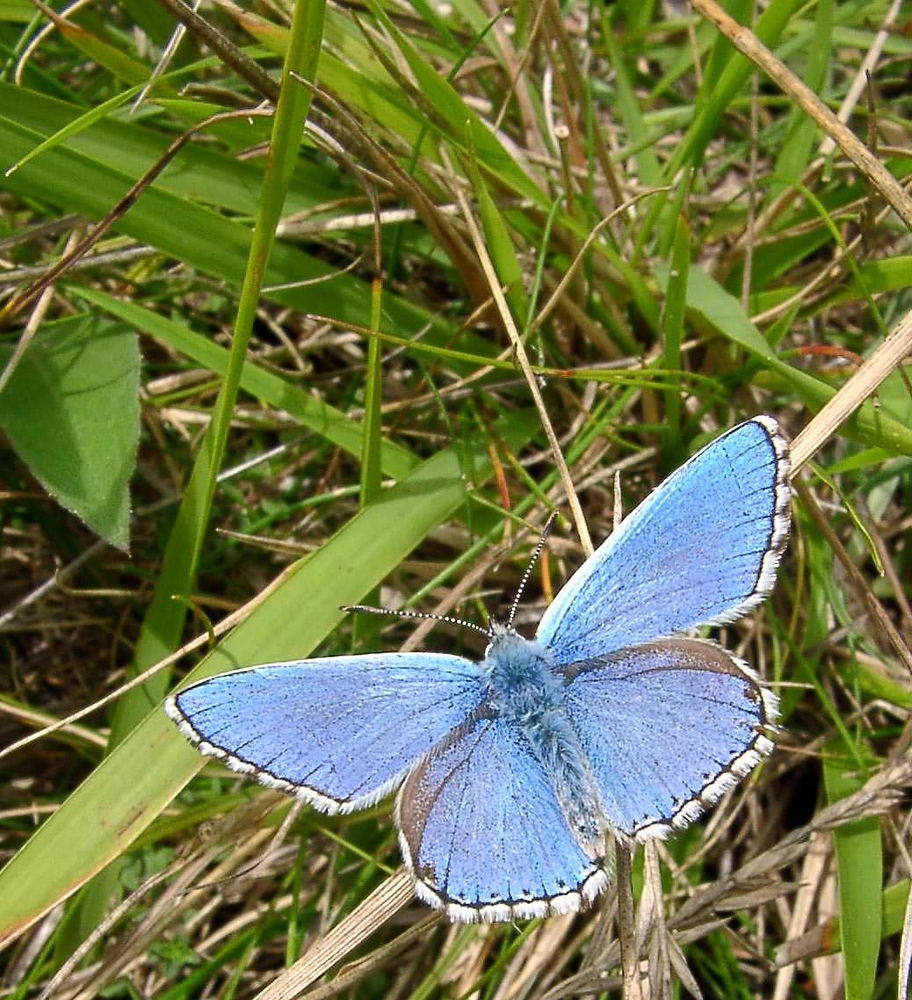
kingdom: Animalia
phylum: Arthropoda
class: Insecta
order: Lepidoptera
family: Lycaenidae
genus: Lysandra
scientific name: Lysandra bellargus
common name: Adonis blue
